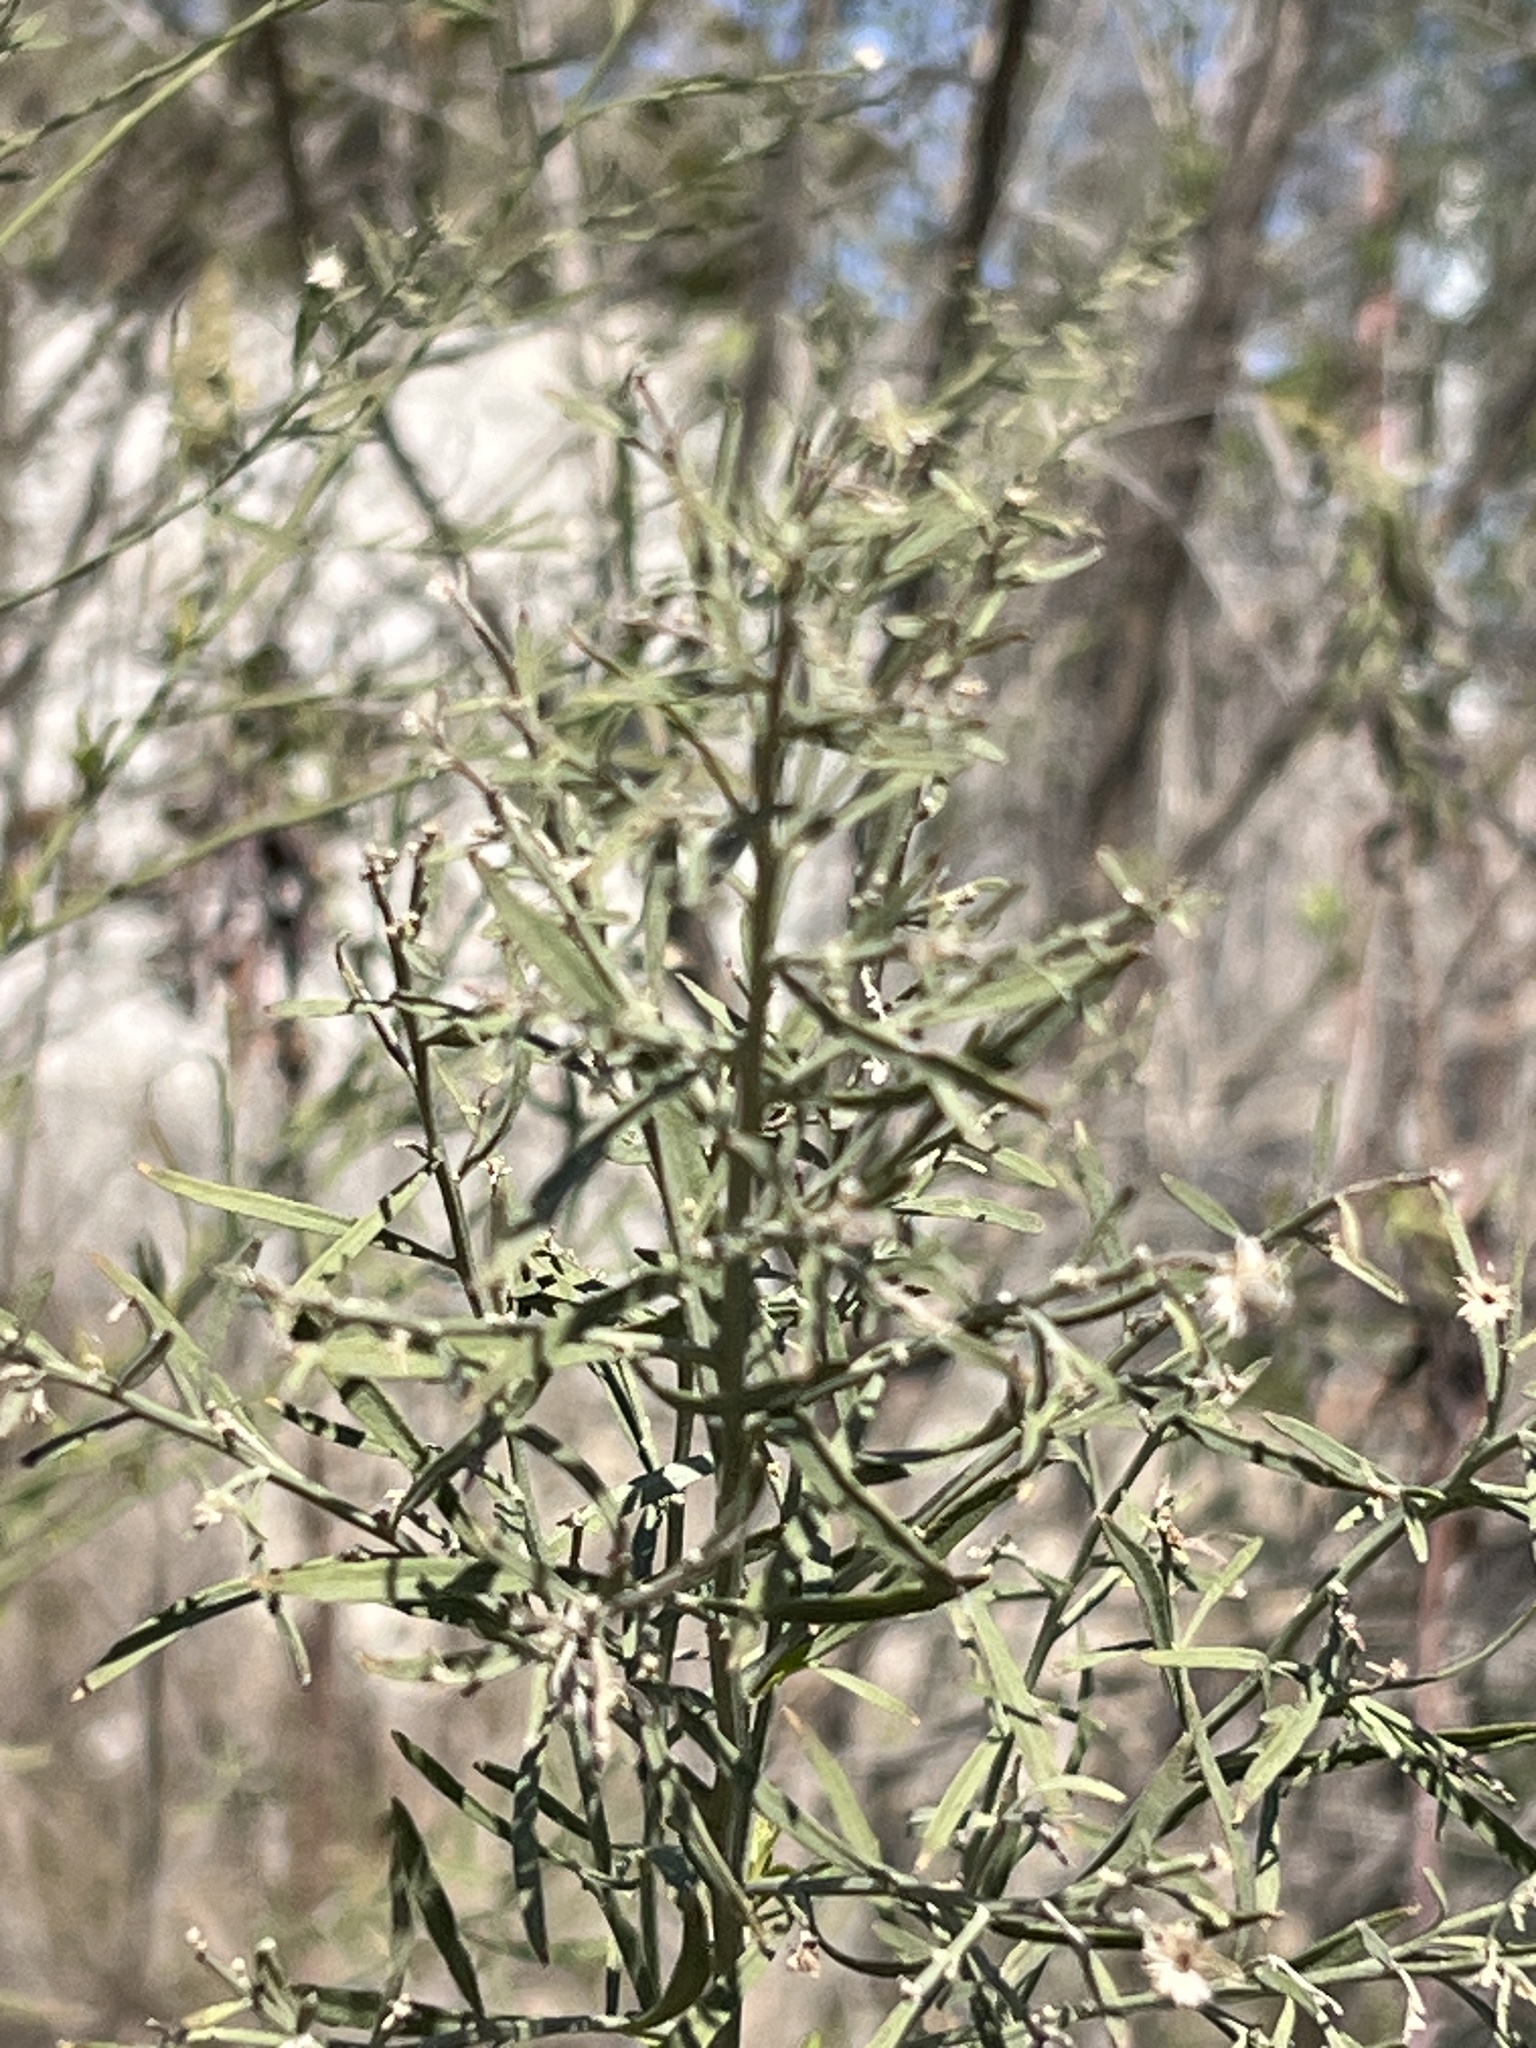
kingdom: Plantae
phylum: Tracheophyta
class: Magnoliopsida
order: Asterales
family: Asteraceae
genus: Baccharis
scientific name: Baccharis neglecta
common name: Roosevelt-weed
